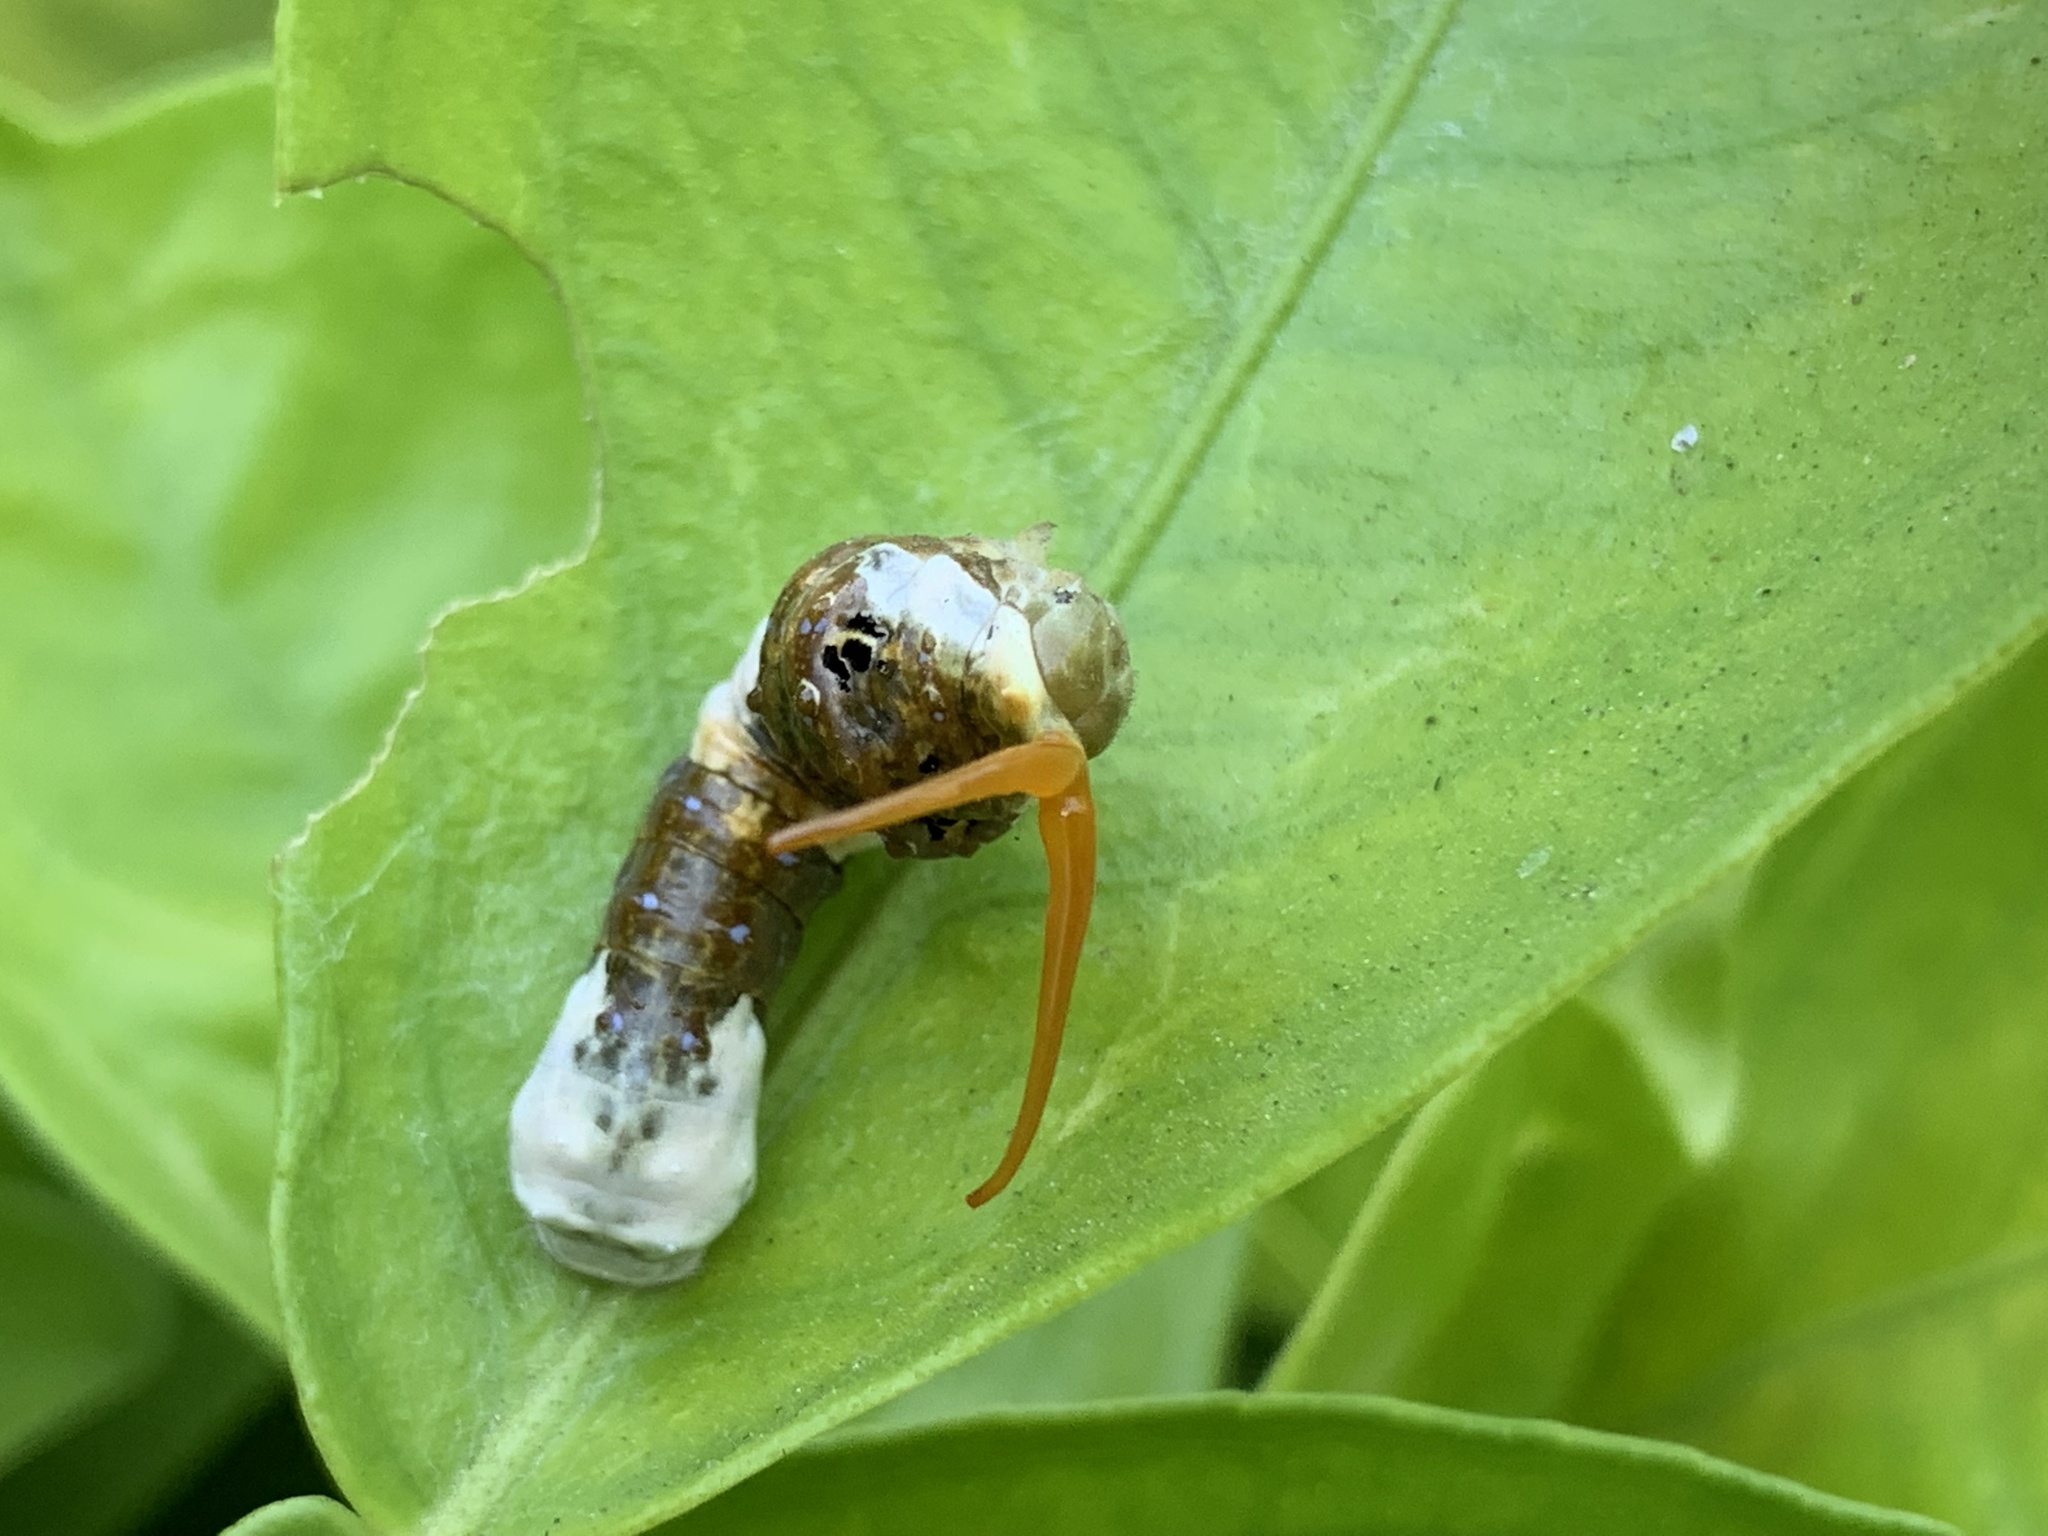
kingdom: Animalia
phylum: Arthropoda
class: Insecta
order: Lepidoptera
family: Papilionidae
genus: Papilio
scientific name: Papilio rumiko
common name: Western giant swallowtail
